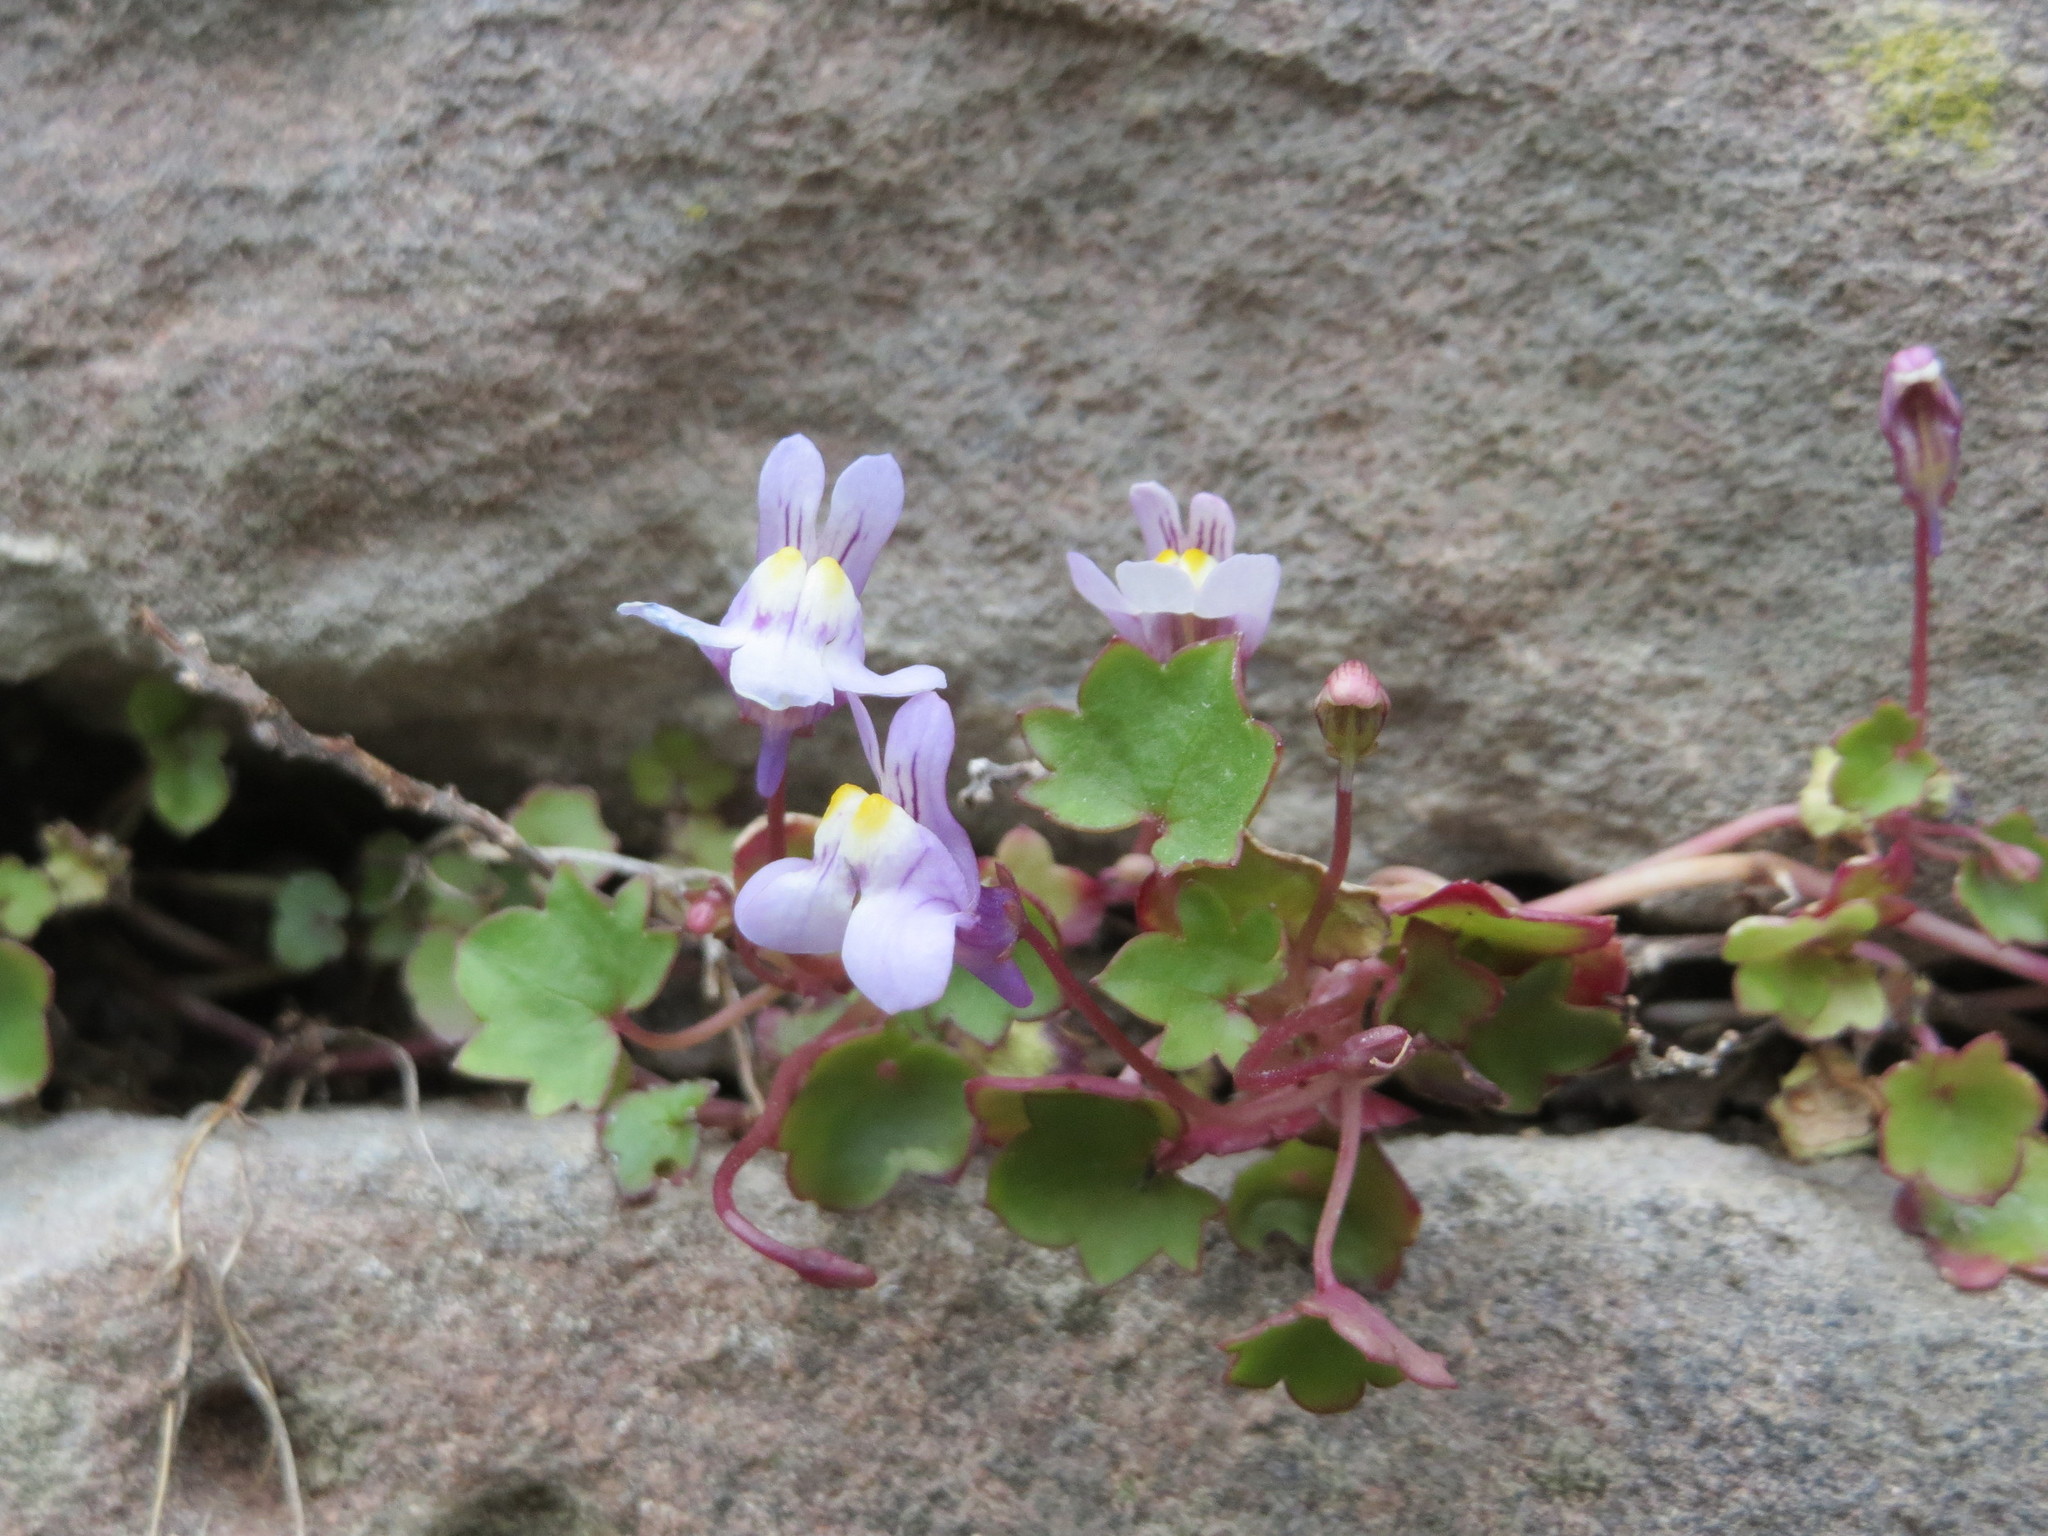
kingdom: Plantae
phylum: Tracheophyta
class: Magnoliopsida
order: Lamiales
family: Plantaginaceae
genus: Cymbalaria
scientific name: Cymbalaria muralis
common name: Ivy-leaved toadflax
